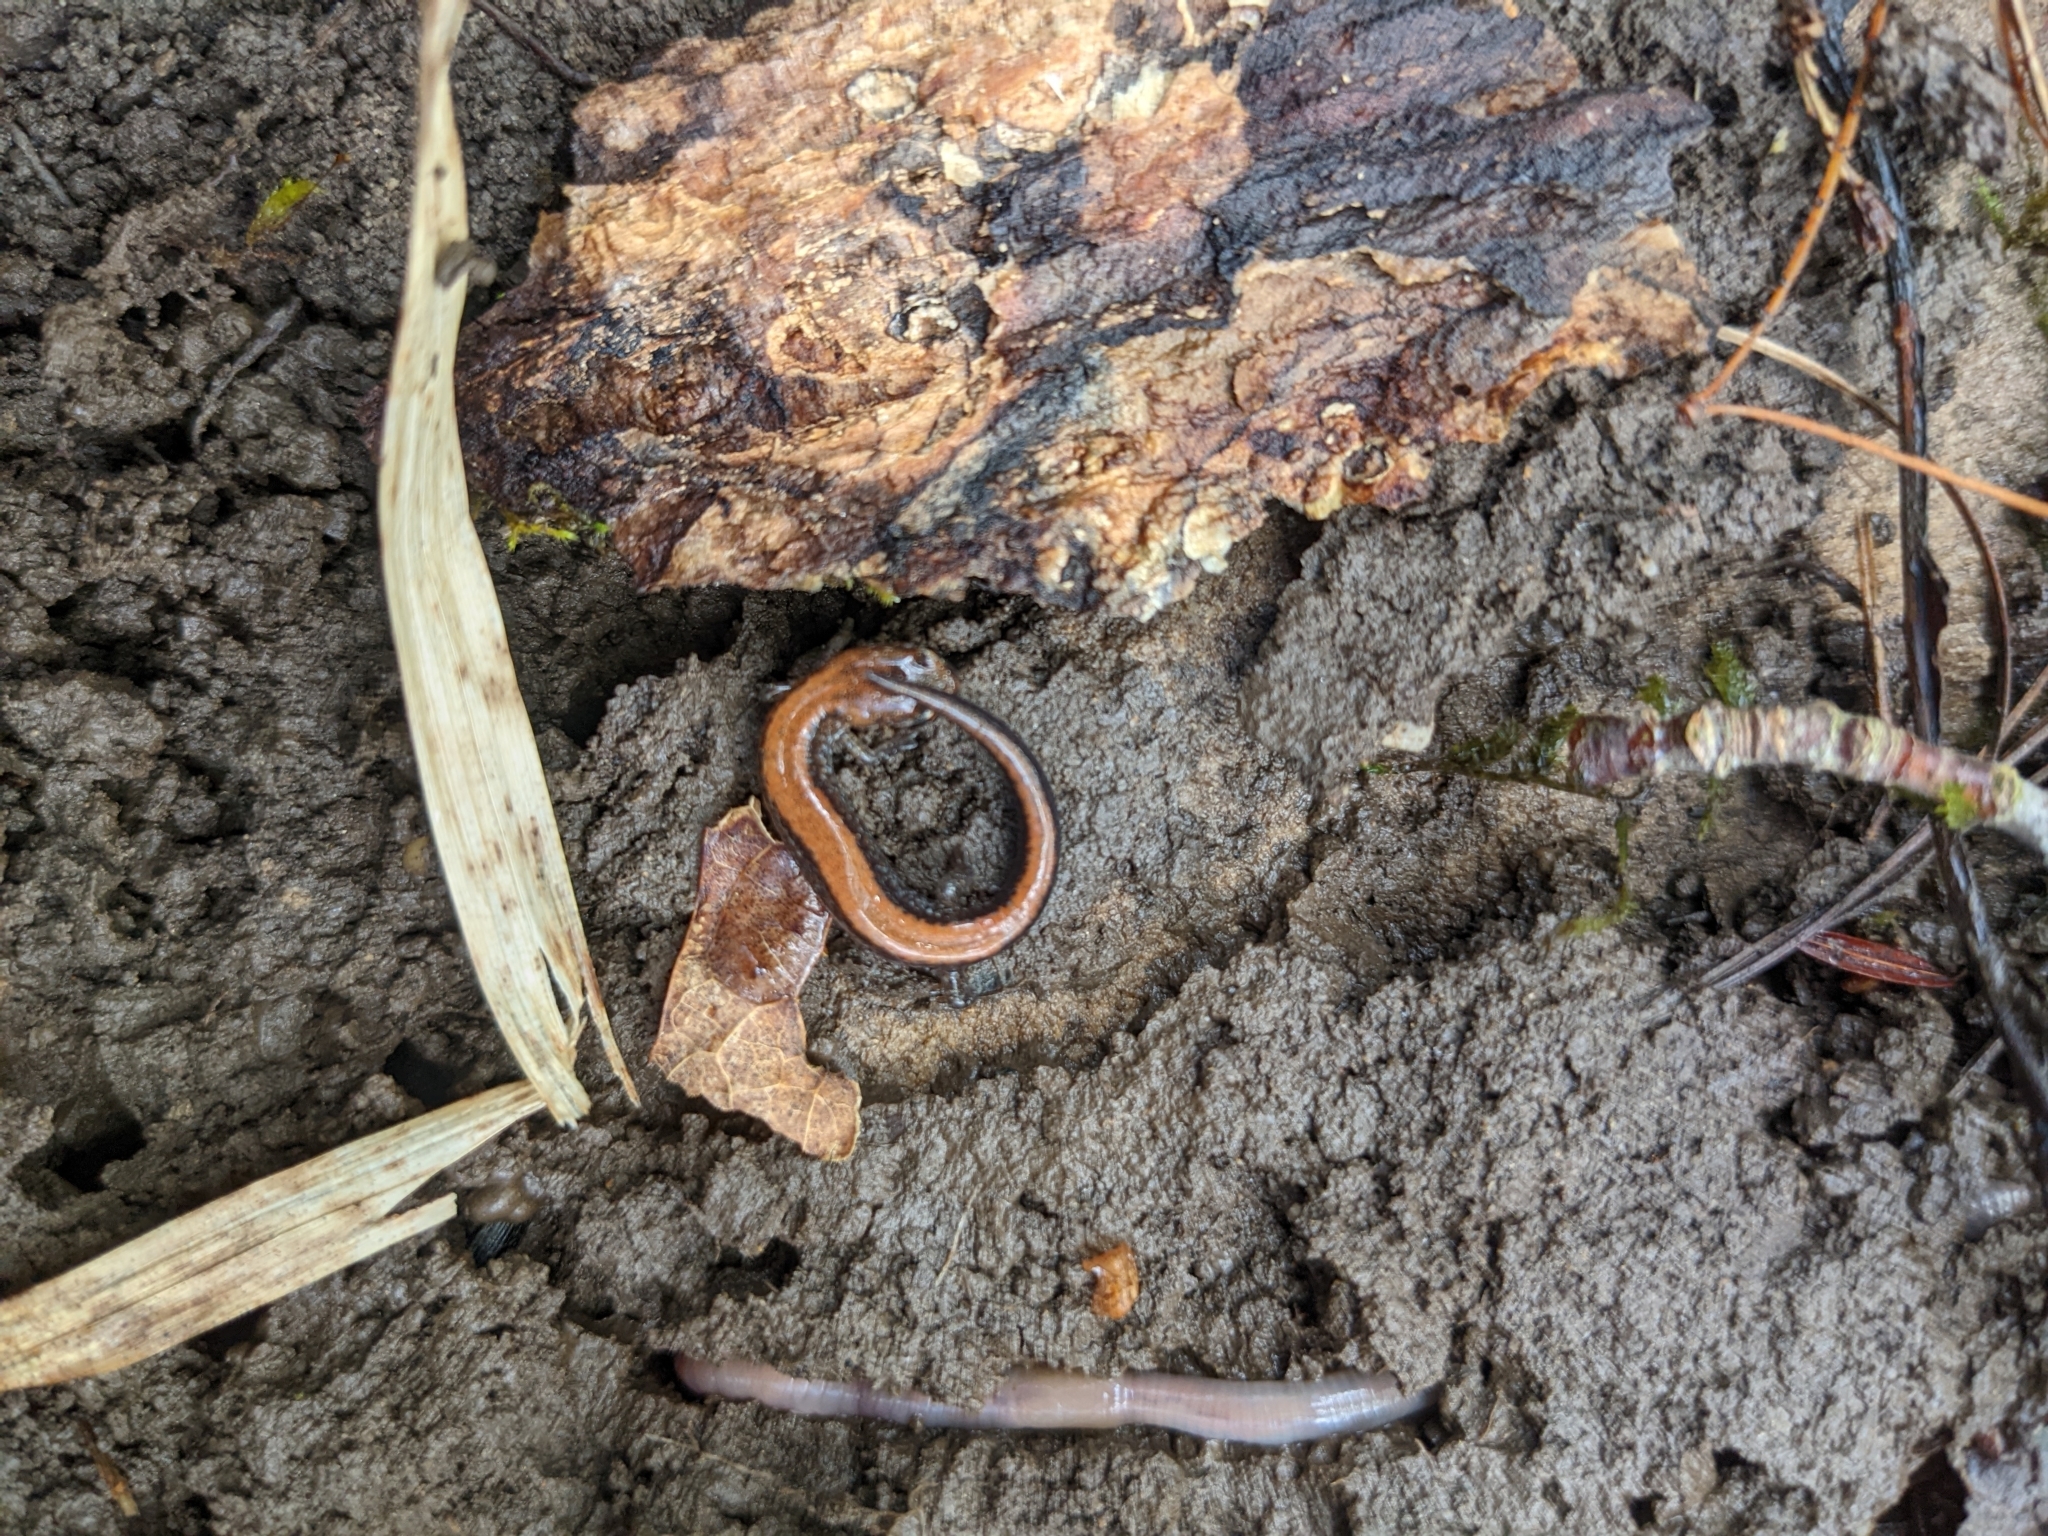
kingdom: Animalia
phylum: Chordata
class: Amphibia
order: Caudata
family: Plethodontidae
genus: Plethodon
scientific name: Plethodon cinereus
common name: Redback salamander
